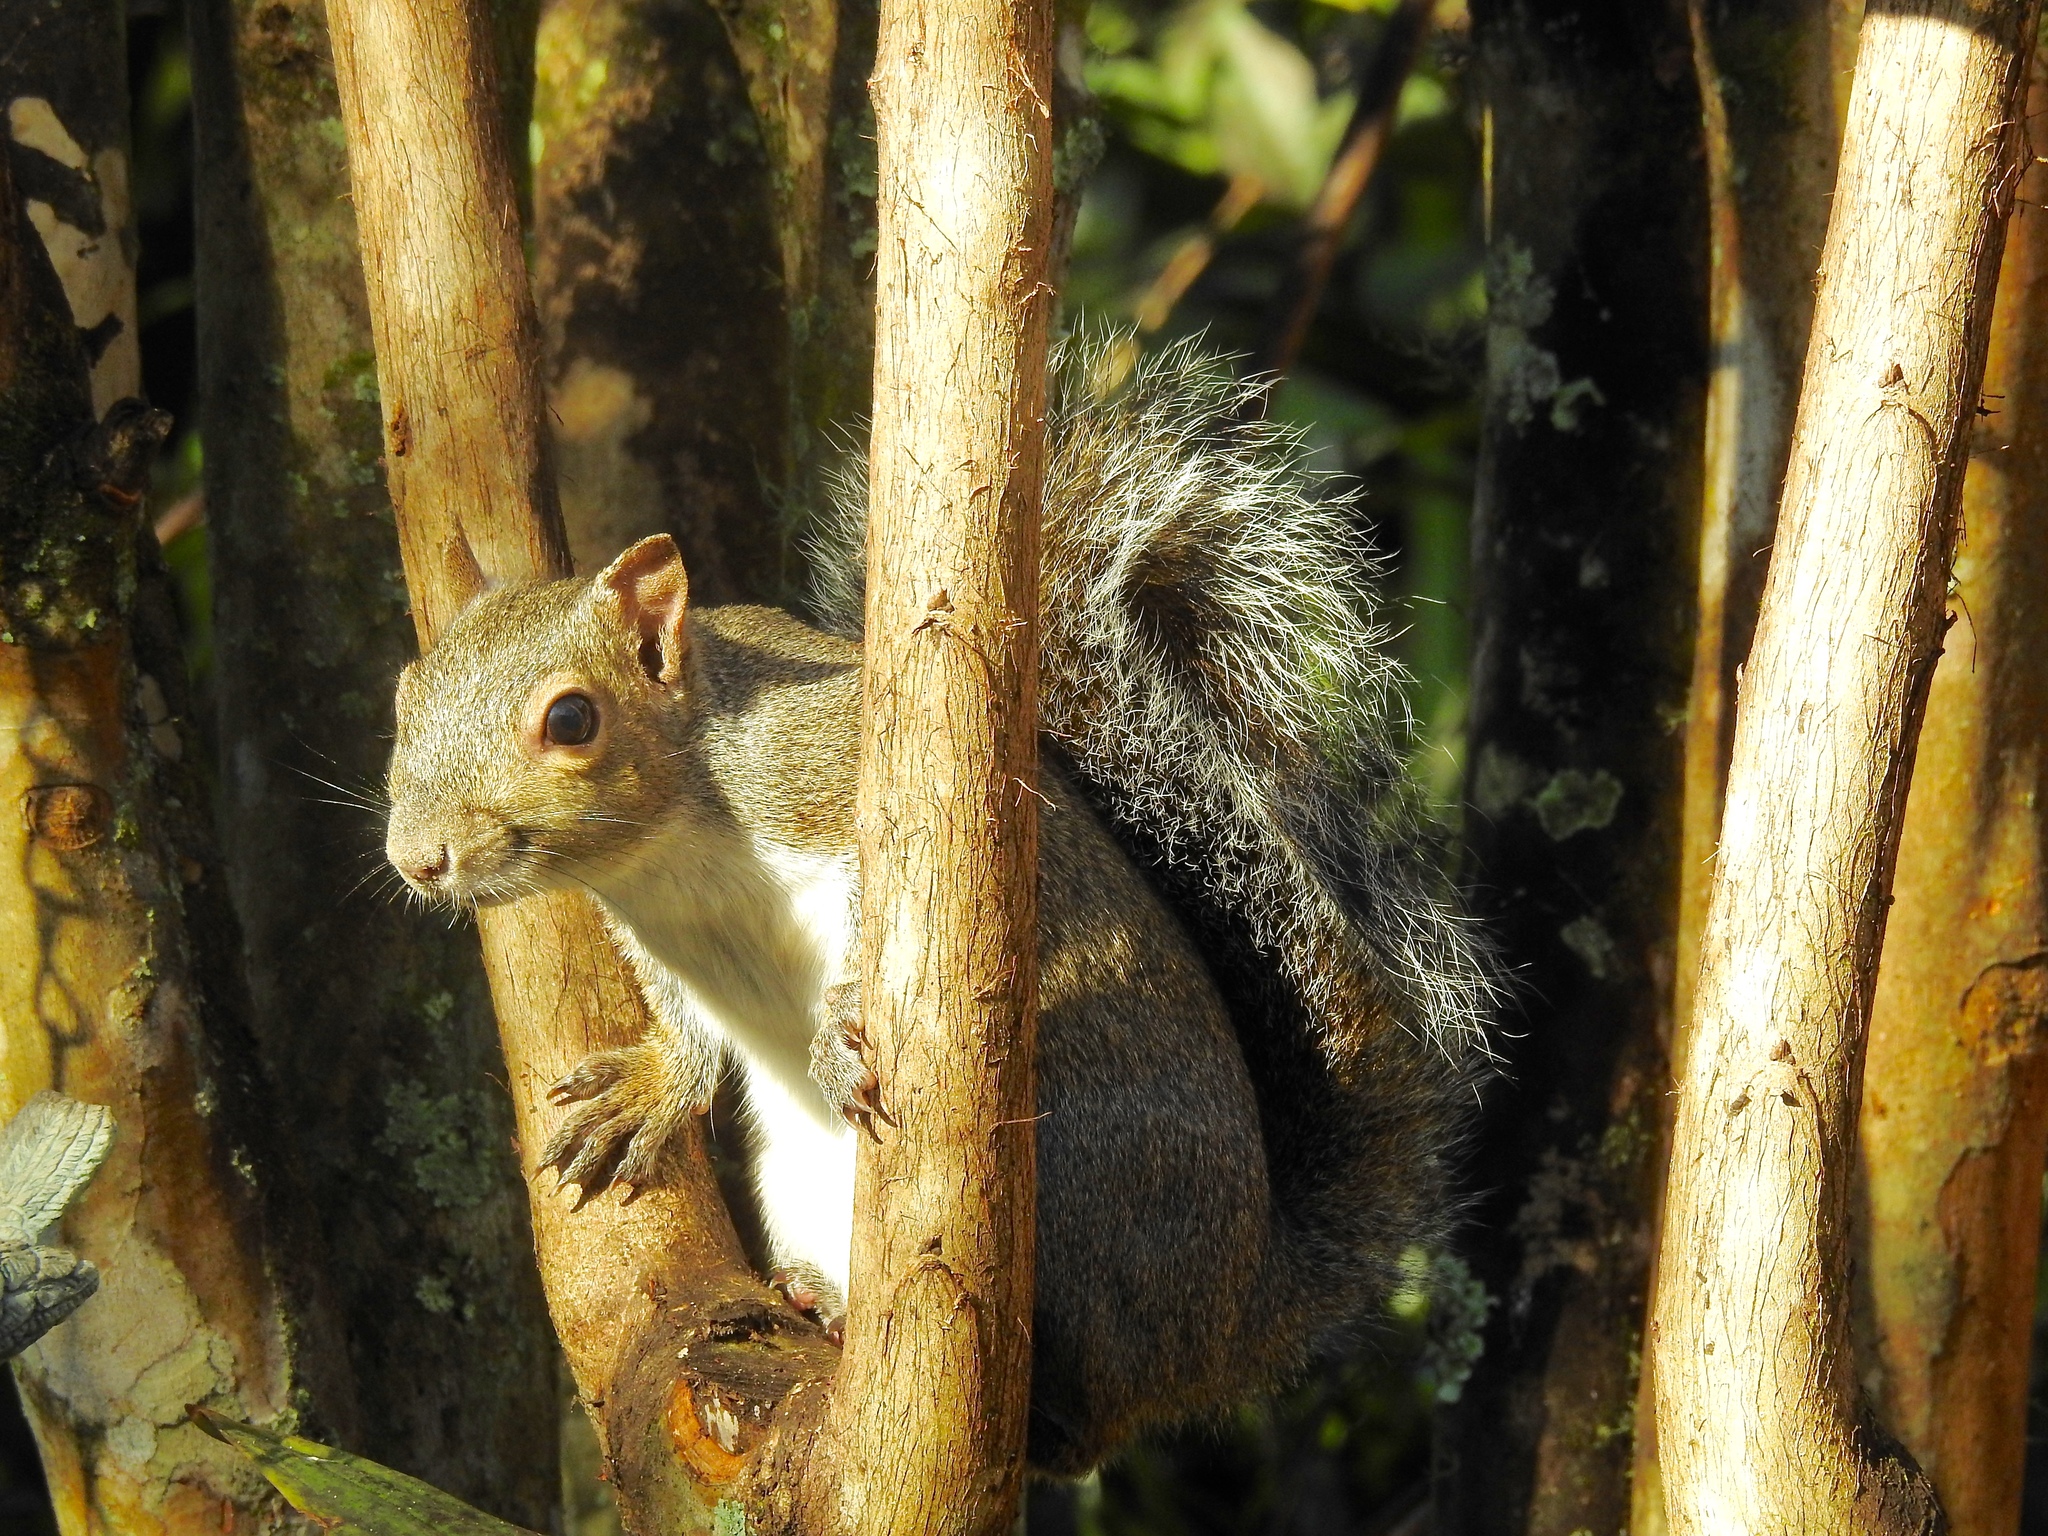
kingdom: Animalia
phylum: Chordata
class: Mammalia
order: Rodentia
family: Sciuridae
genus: Sciurus
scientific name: Sciurus carolinensis
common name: Eastern gray squirrel
